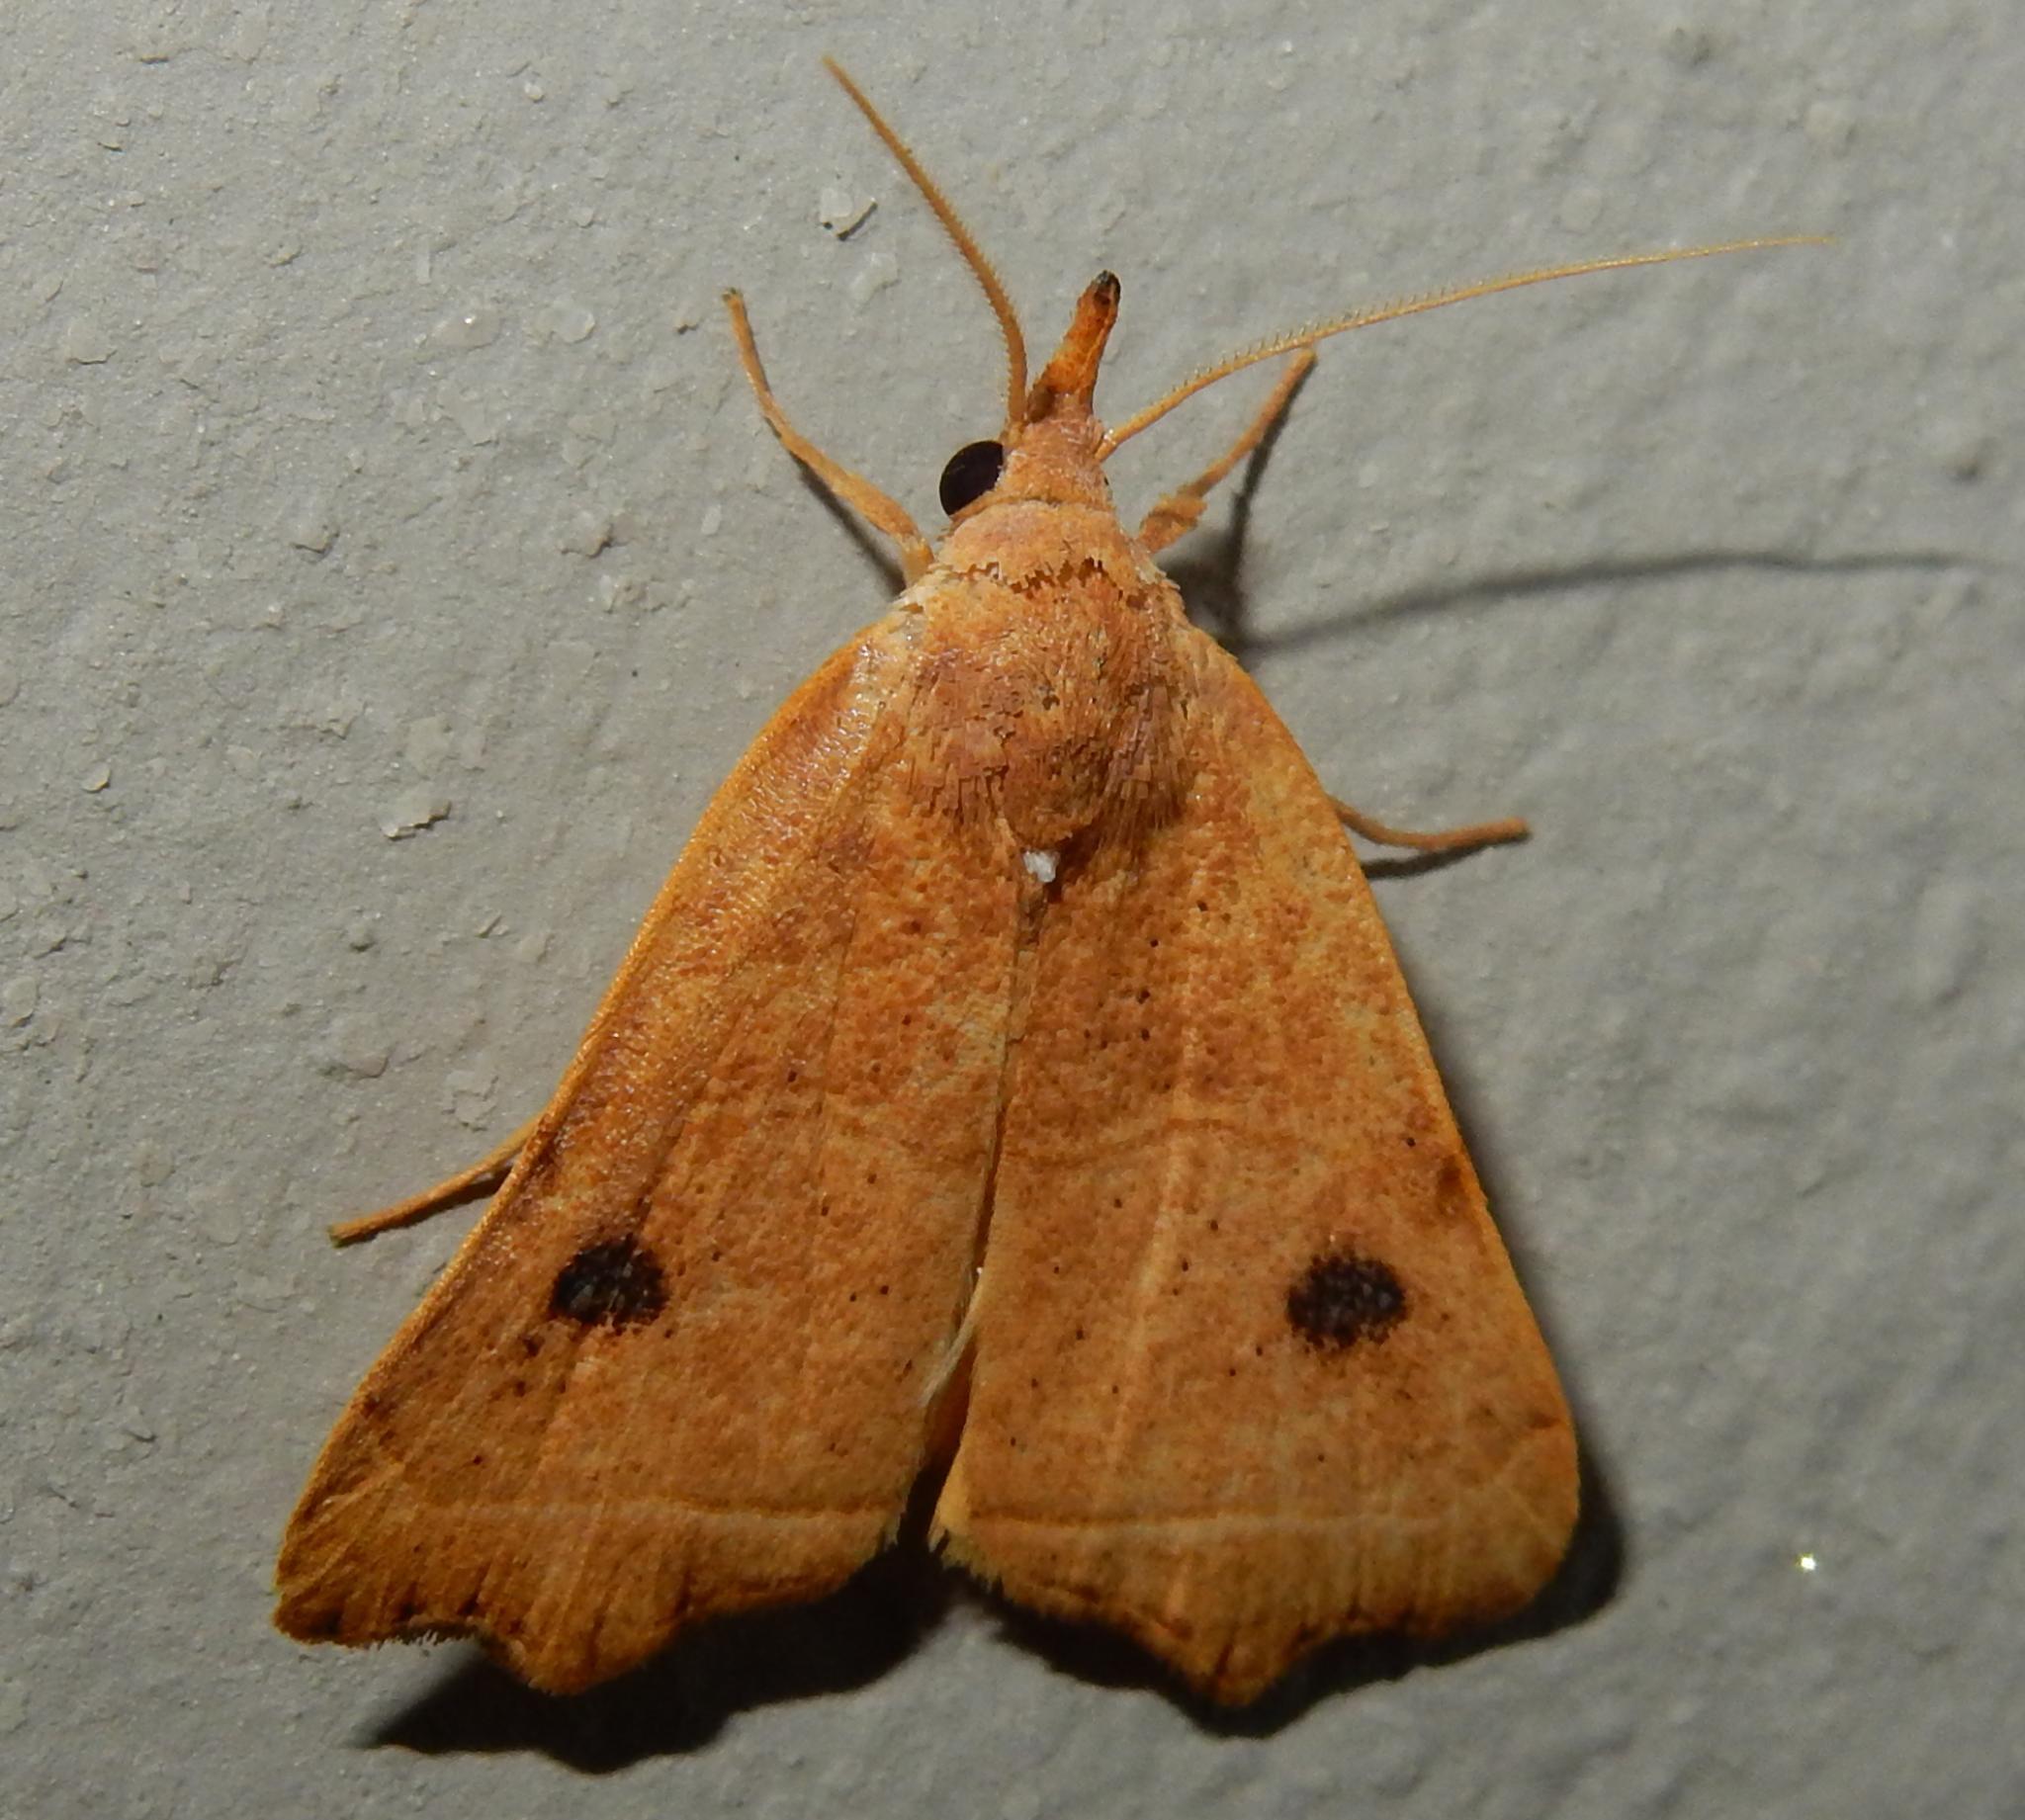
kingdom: Animalia
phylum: Arthropoda
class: Insecta
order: Lepidoptera
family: Erebidae
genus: Hondryches
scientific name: Hondryches phalaeniformis
